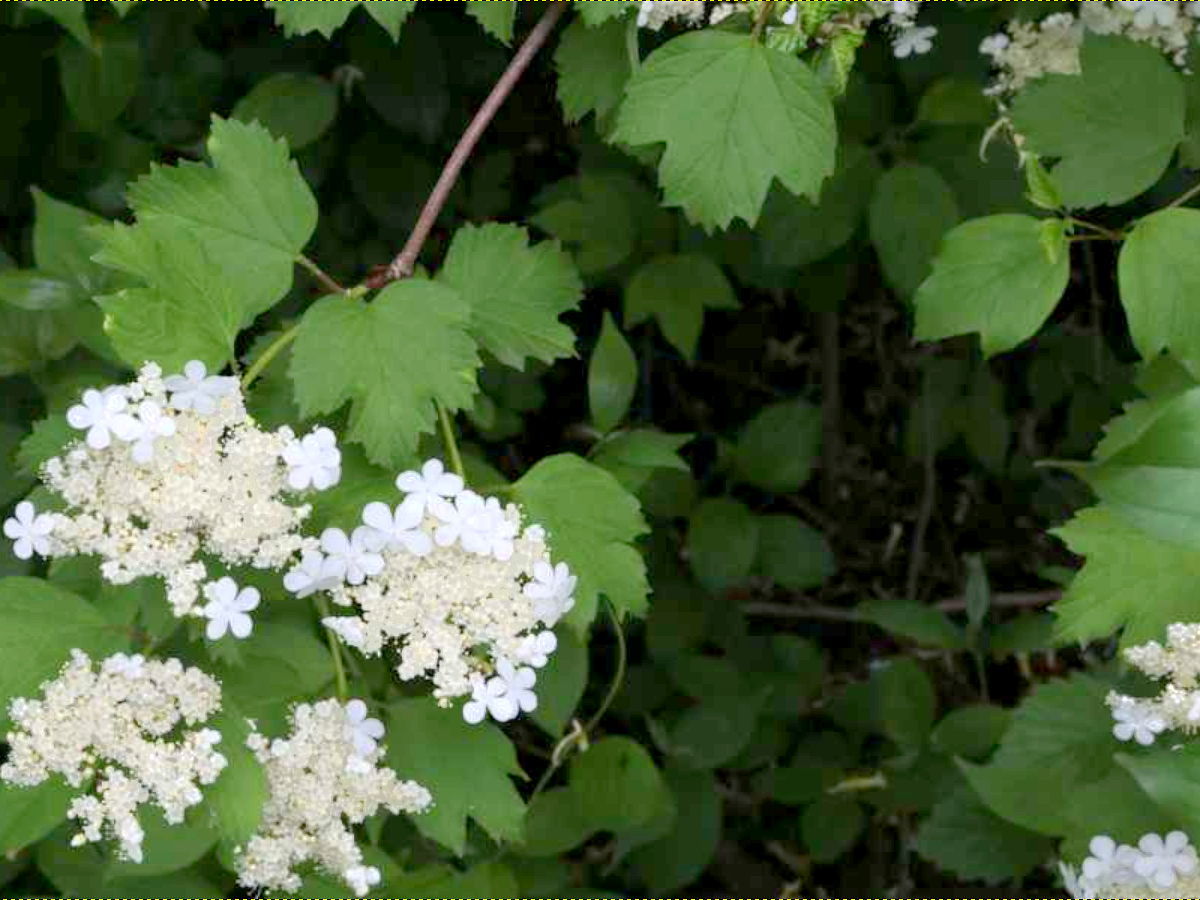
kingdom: Plantae
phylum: Tracheophyta
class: Magnoliopsida
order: Dipsacales
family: Viburnaceae
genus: Viburnum
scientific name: Viburnum opulus
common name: Guelder-rose
